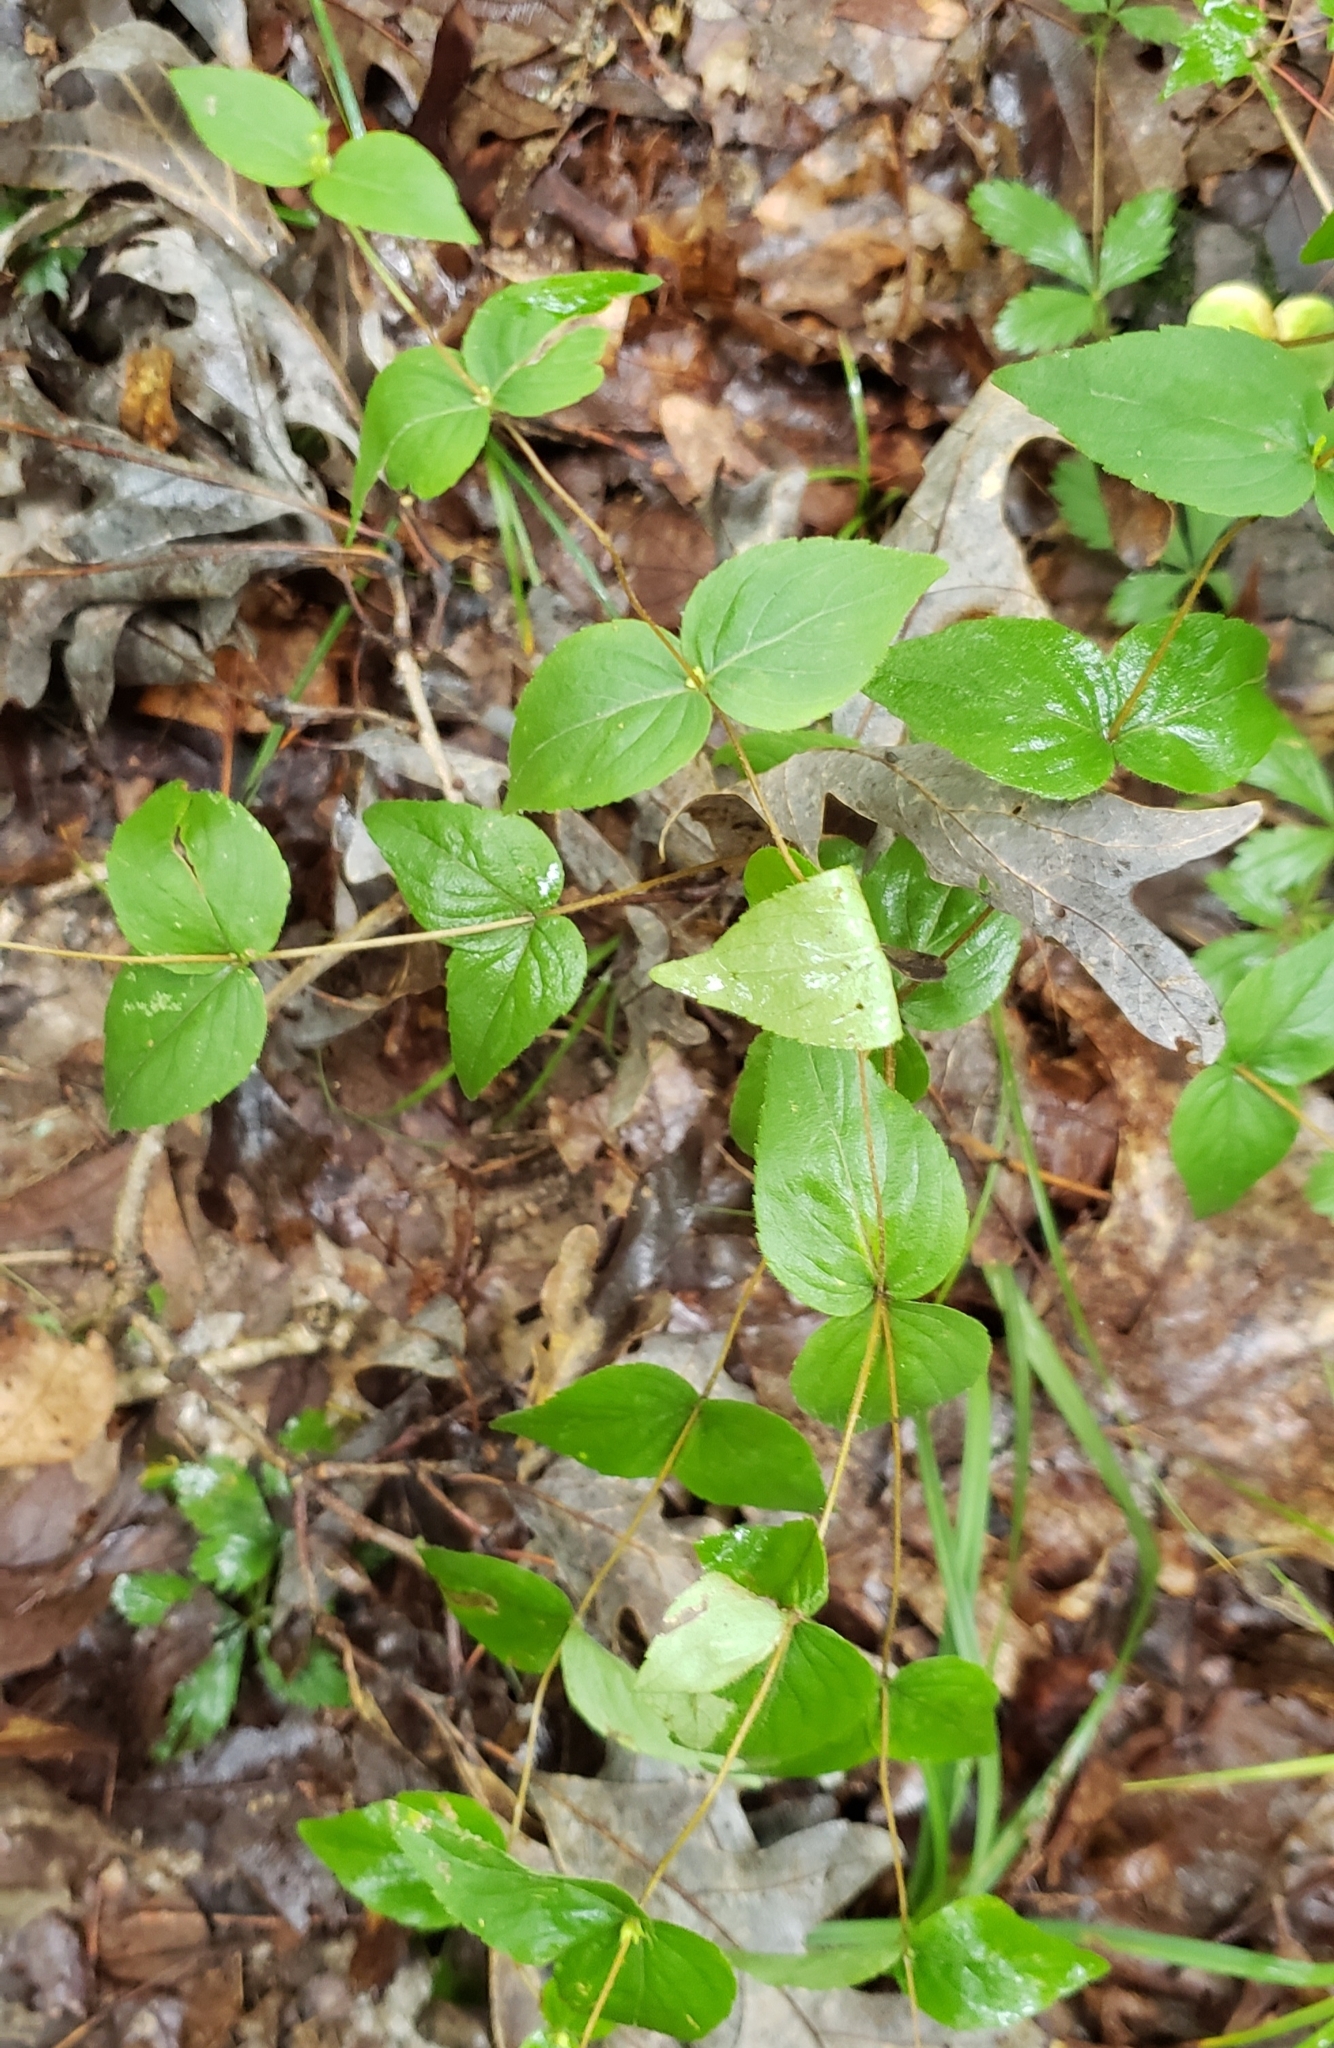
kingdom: Plantae
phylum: Tracheophyta
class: Magnoliopsida
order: Lamiales
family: Lamiaceae
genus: Cunila
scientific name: Cunila origanoides
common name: American dittany
